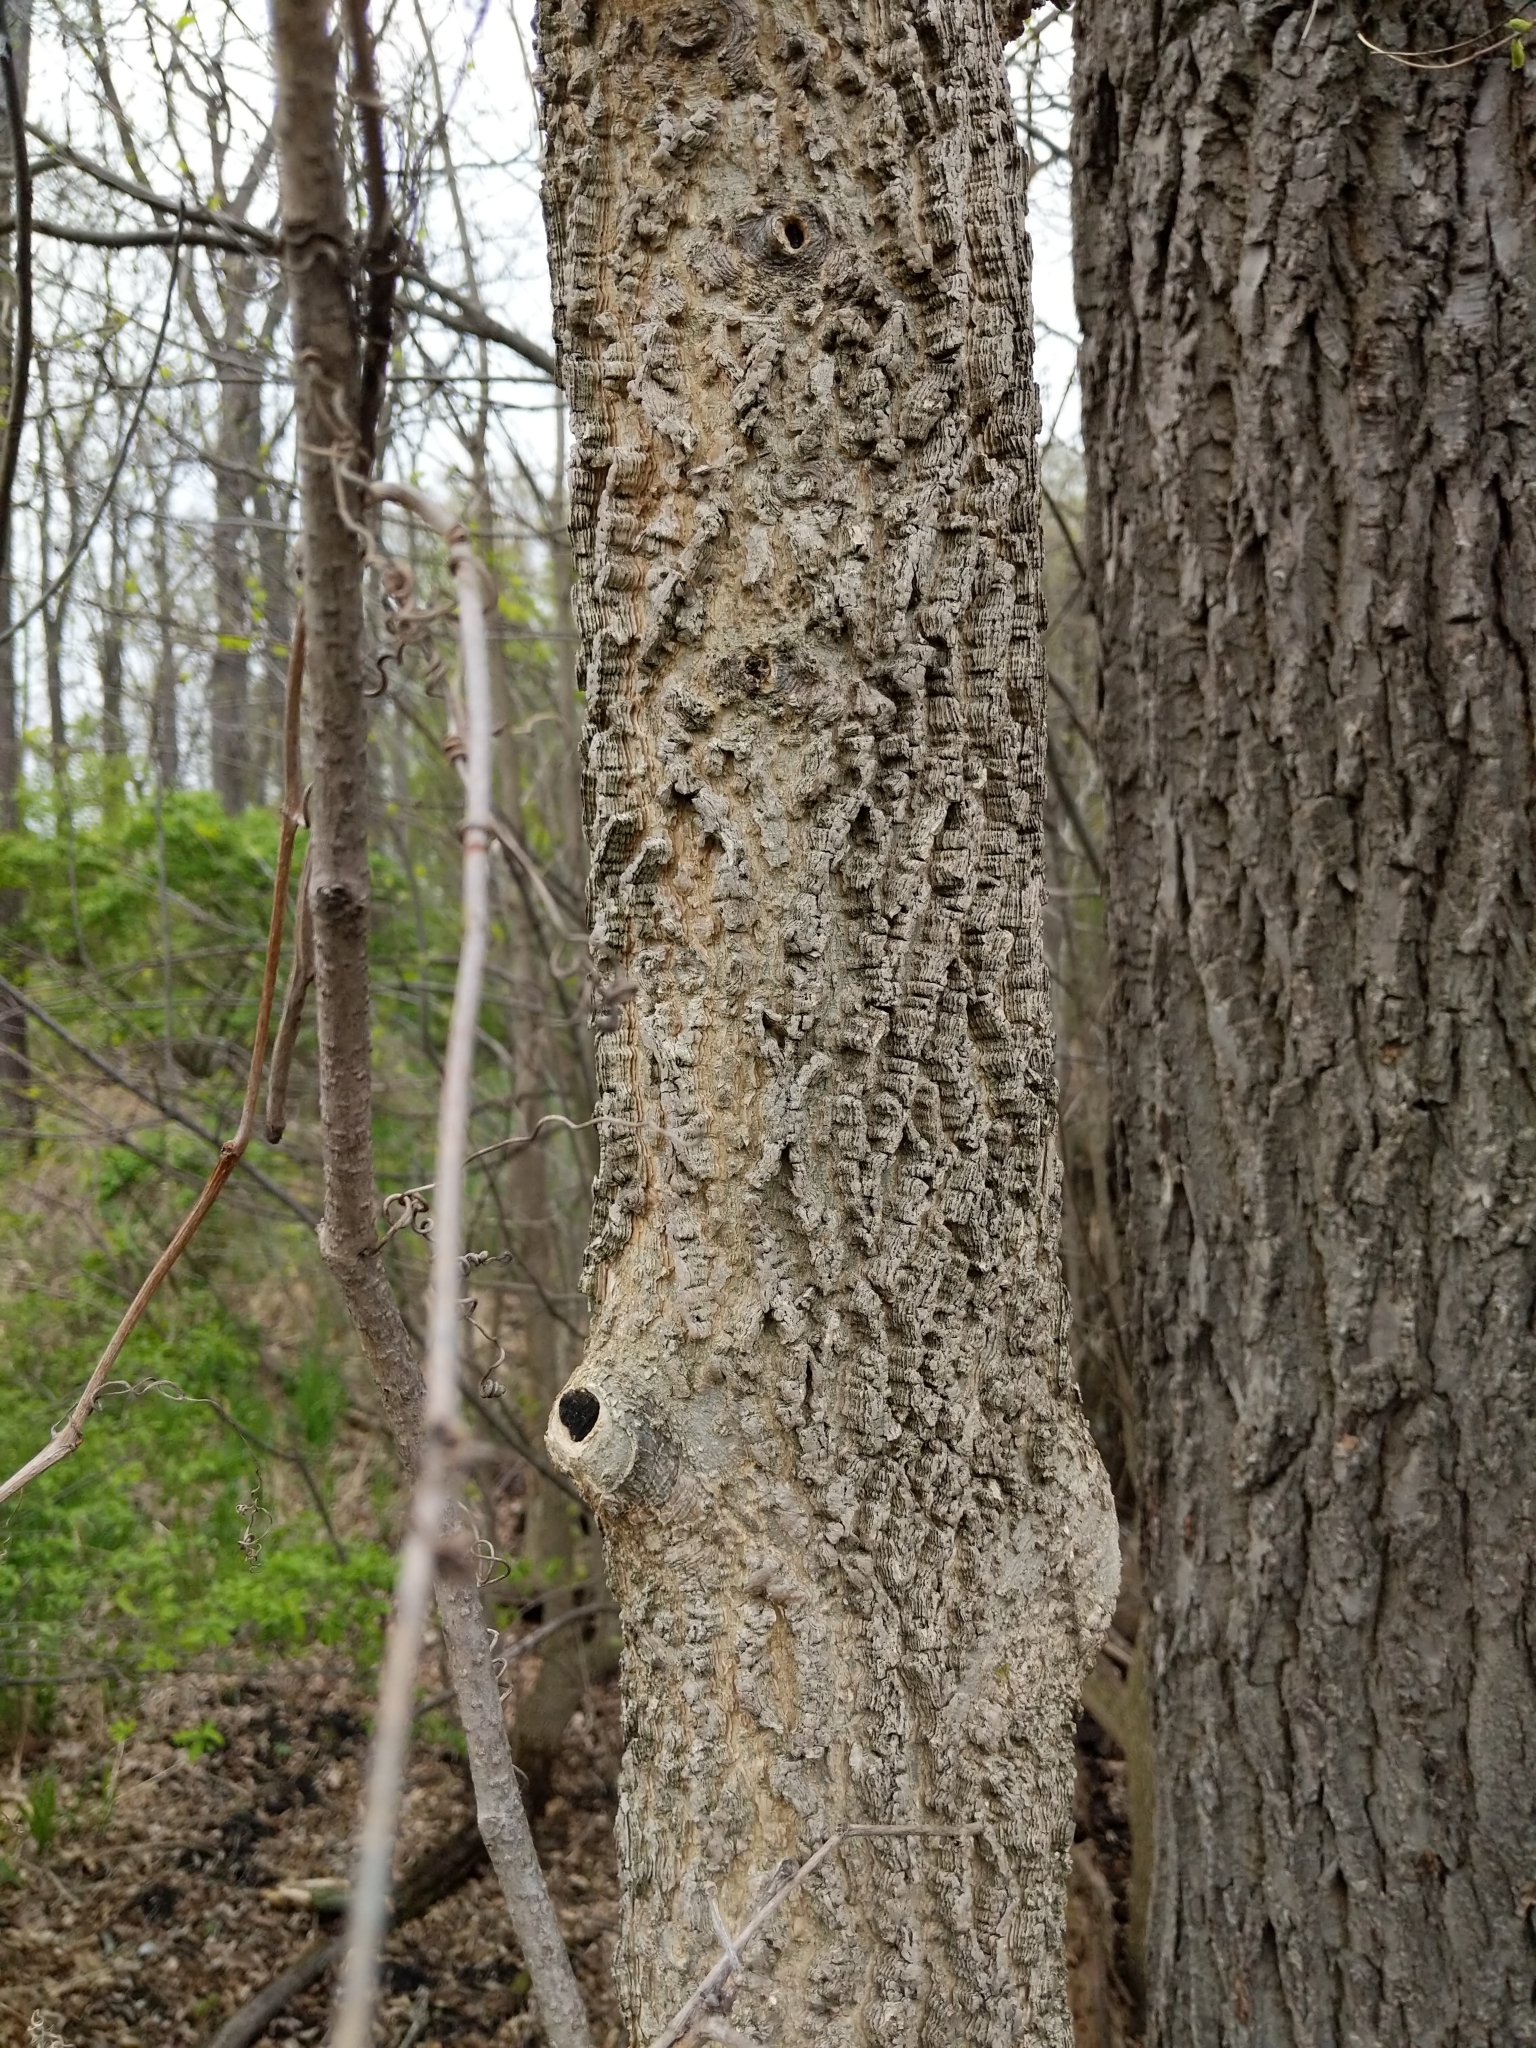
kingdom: Plantae
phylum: Tracheophyta
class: Magnoliopsida
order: Rosales
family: Cannabaceae
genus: Celtis
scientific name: Celtis occidentalis
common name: Common hackberry
